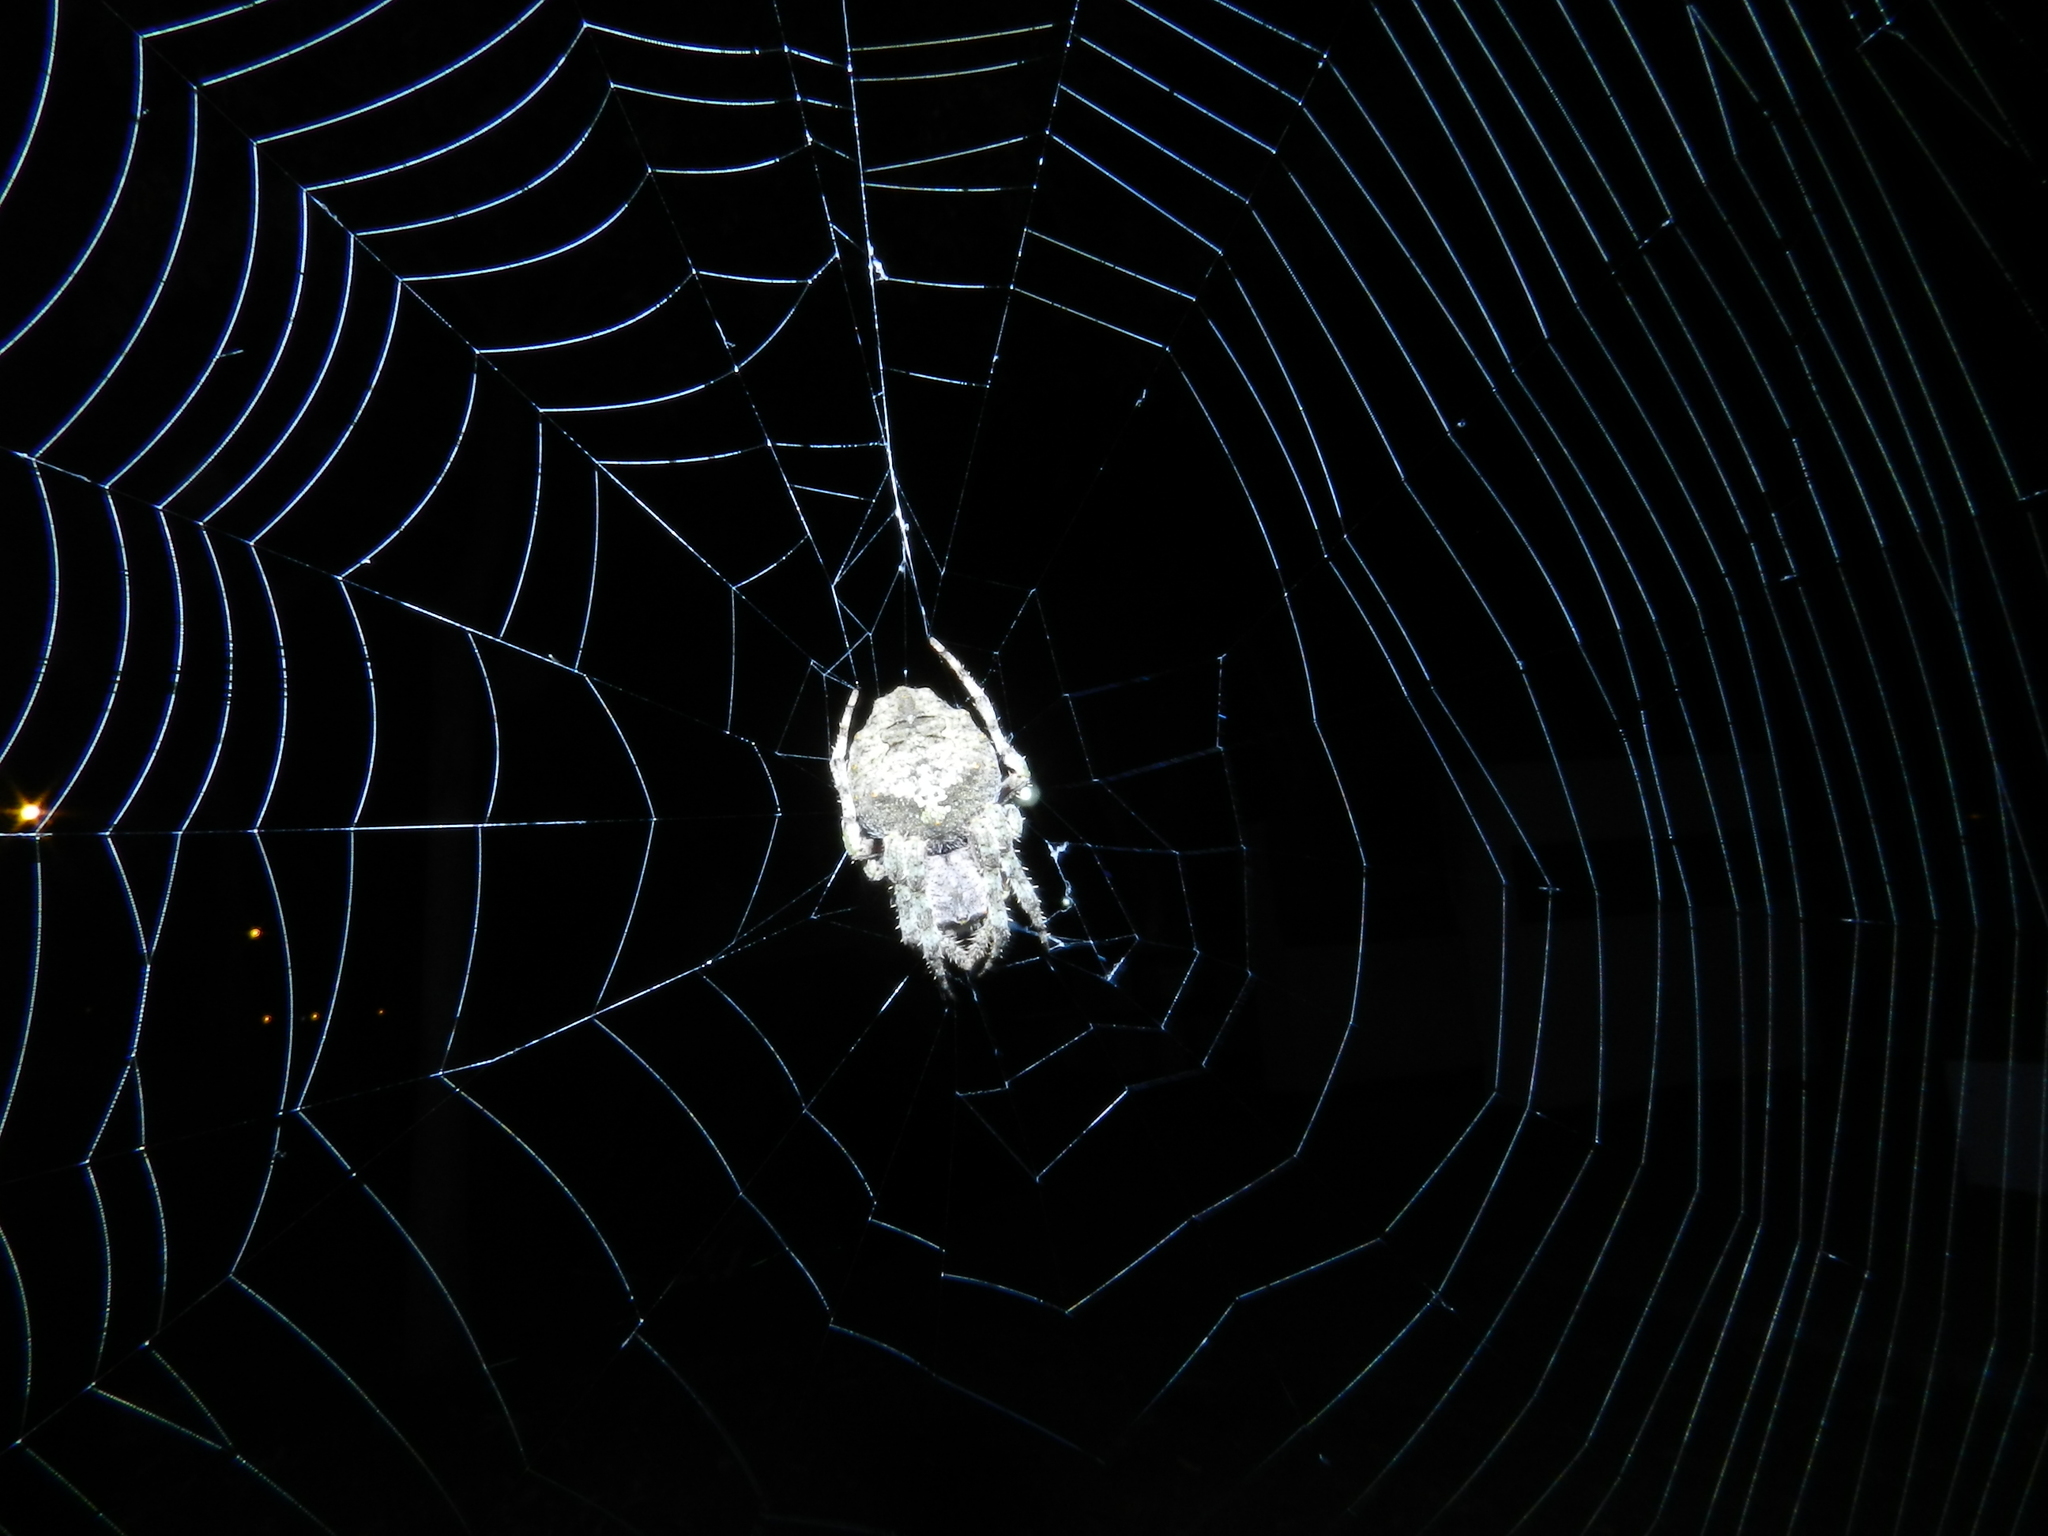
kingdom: Animalia
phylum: Arthropoda
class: Arachnida
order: Araneae
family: Araneidae
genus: Parawixia
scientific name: Parawixia audax
